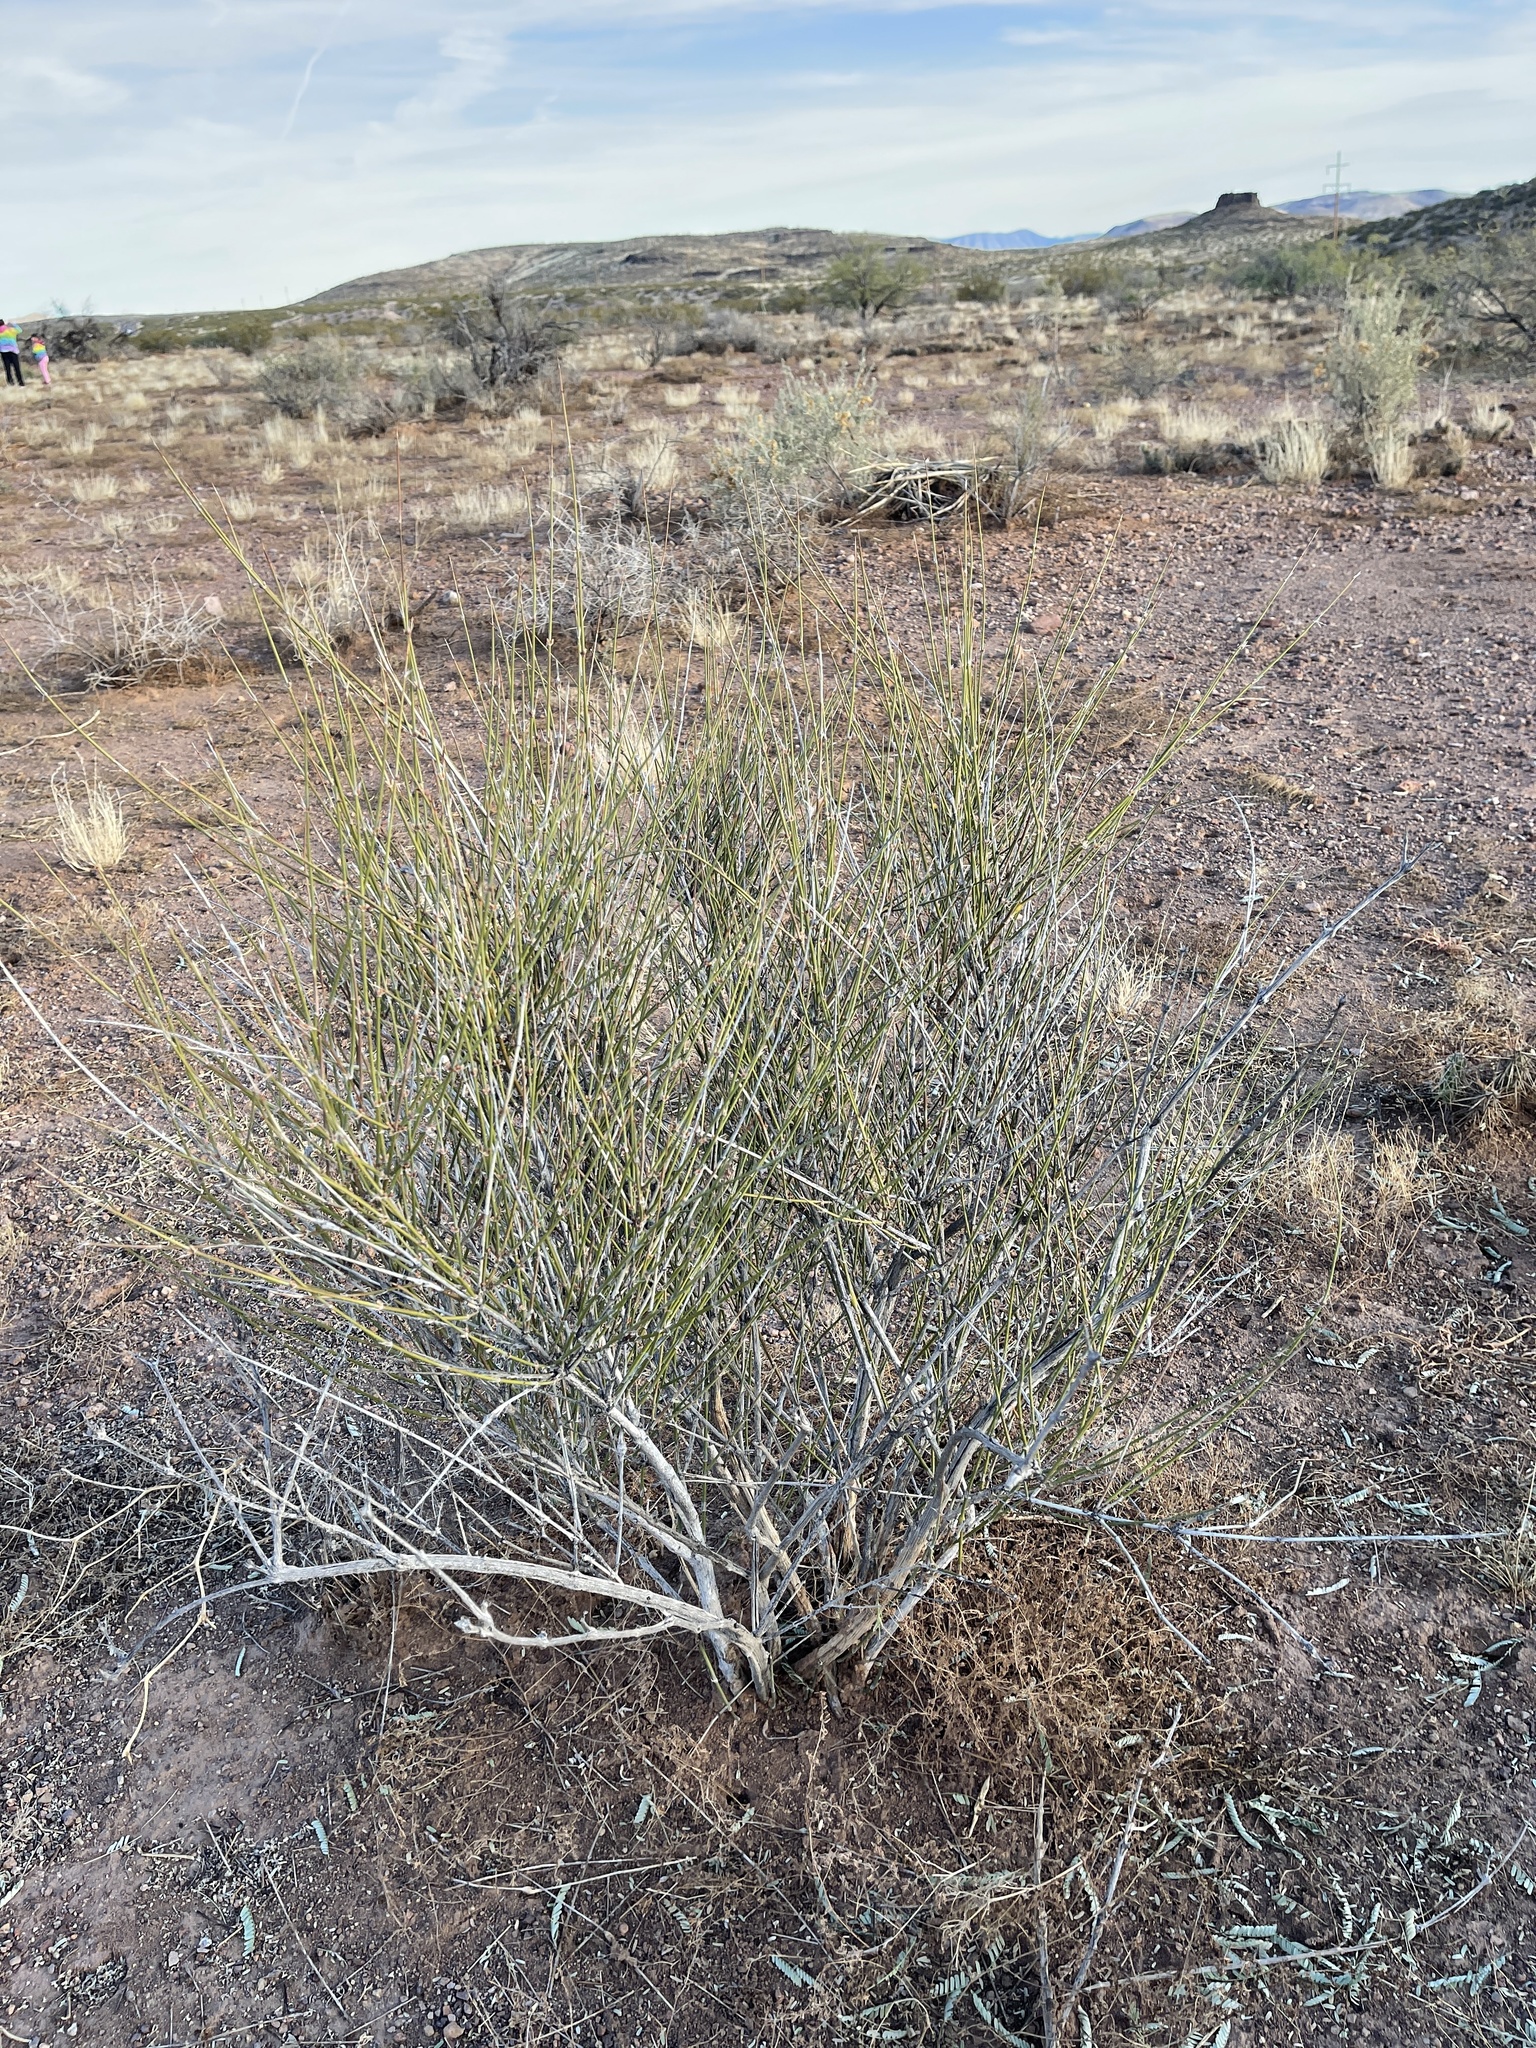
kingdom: Plantae
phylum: Tracheophyta
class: Gnetopsida
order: Ephedrales
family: Ephedraceae
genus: Ephedra
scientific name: Ephedra trifurca
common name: Mexican-tea
